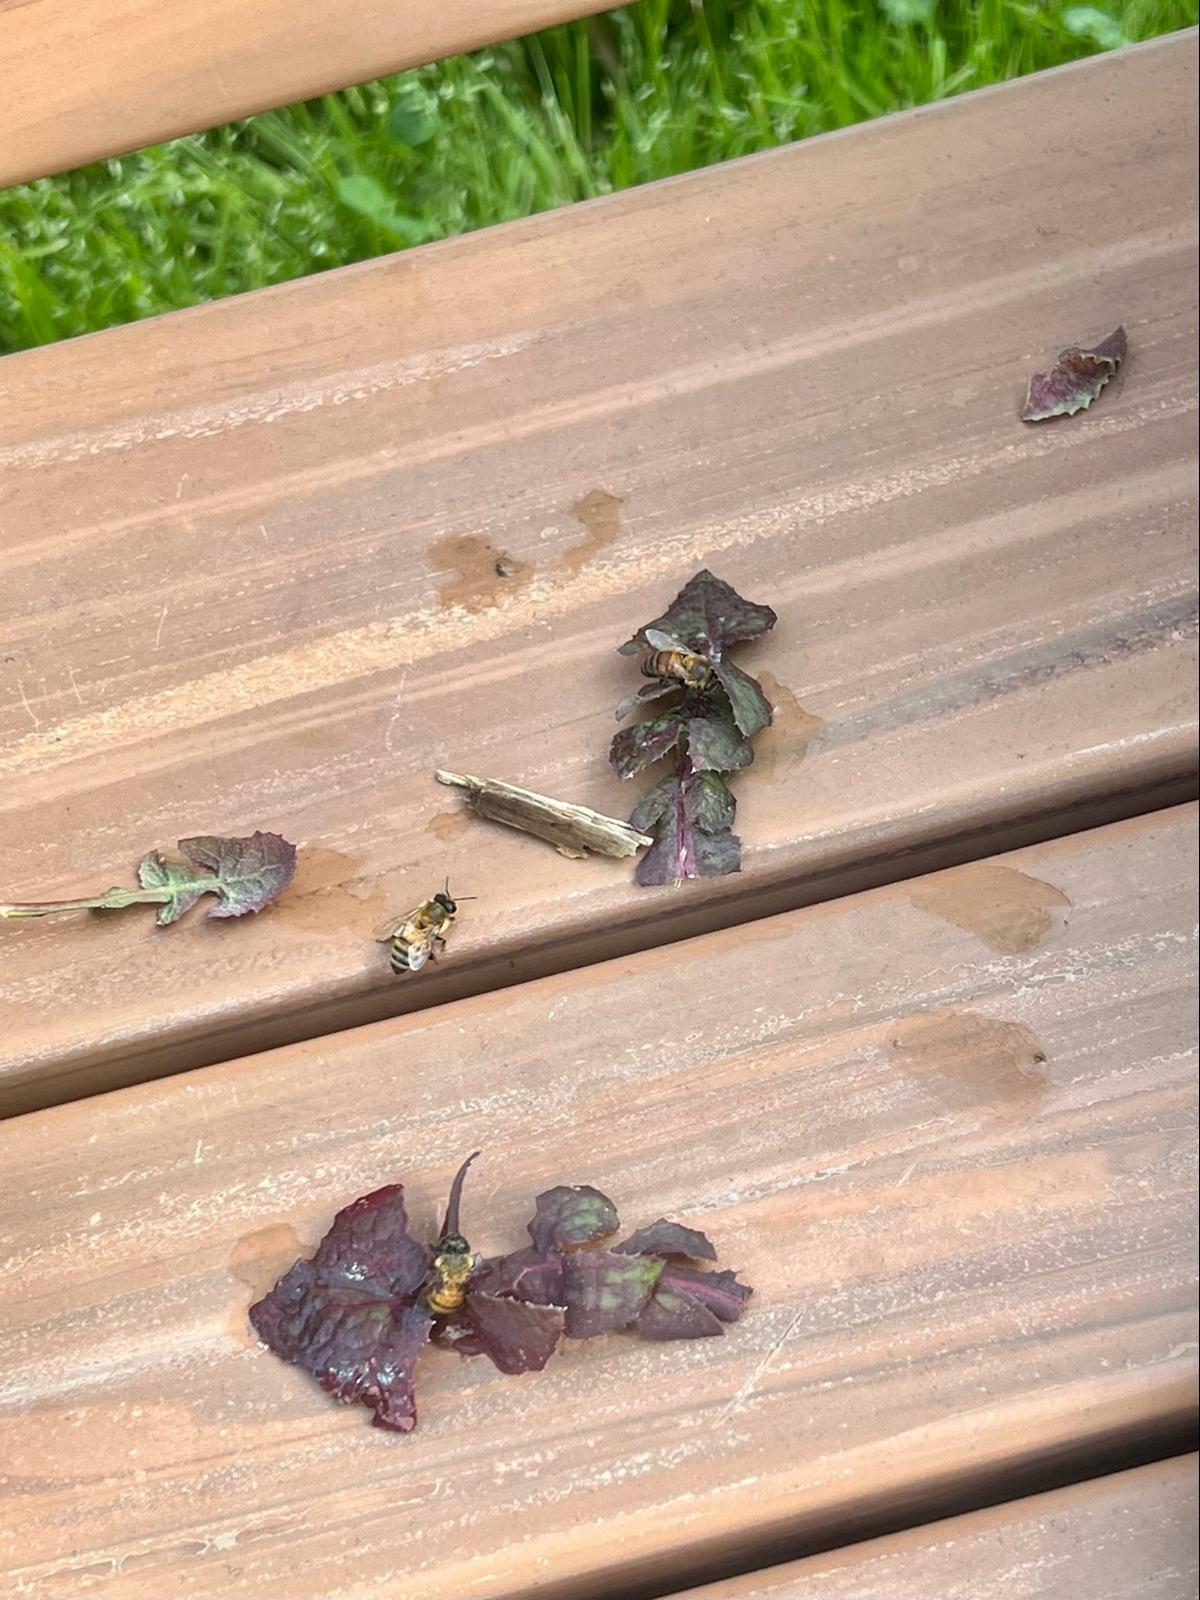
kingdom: Animalia
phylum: Arthropoda
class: Insecta
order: Hymenoptera
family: Apidae
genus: Apis
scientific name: Apis mellifera
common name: Honey bee
